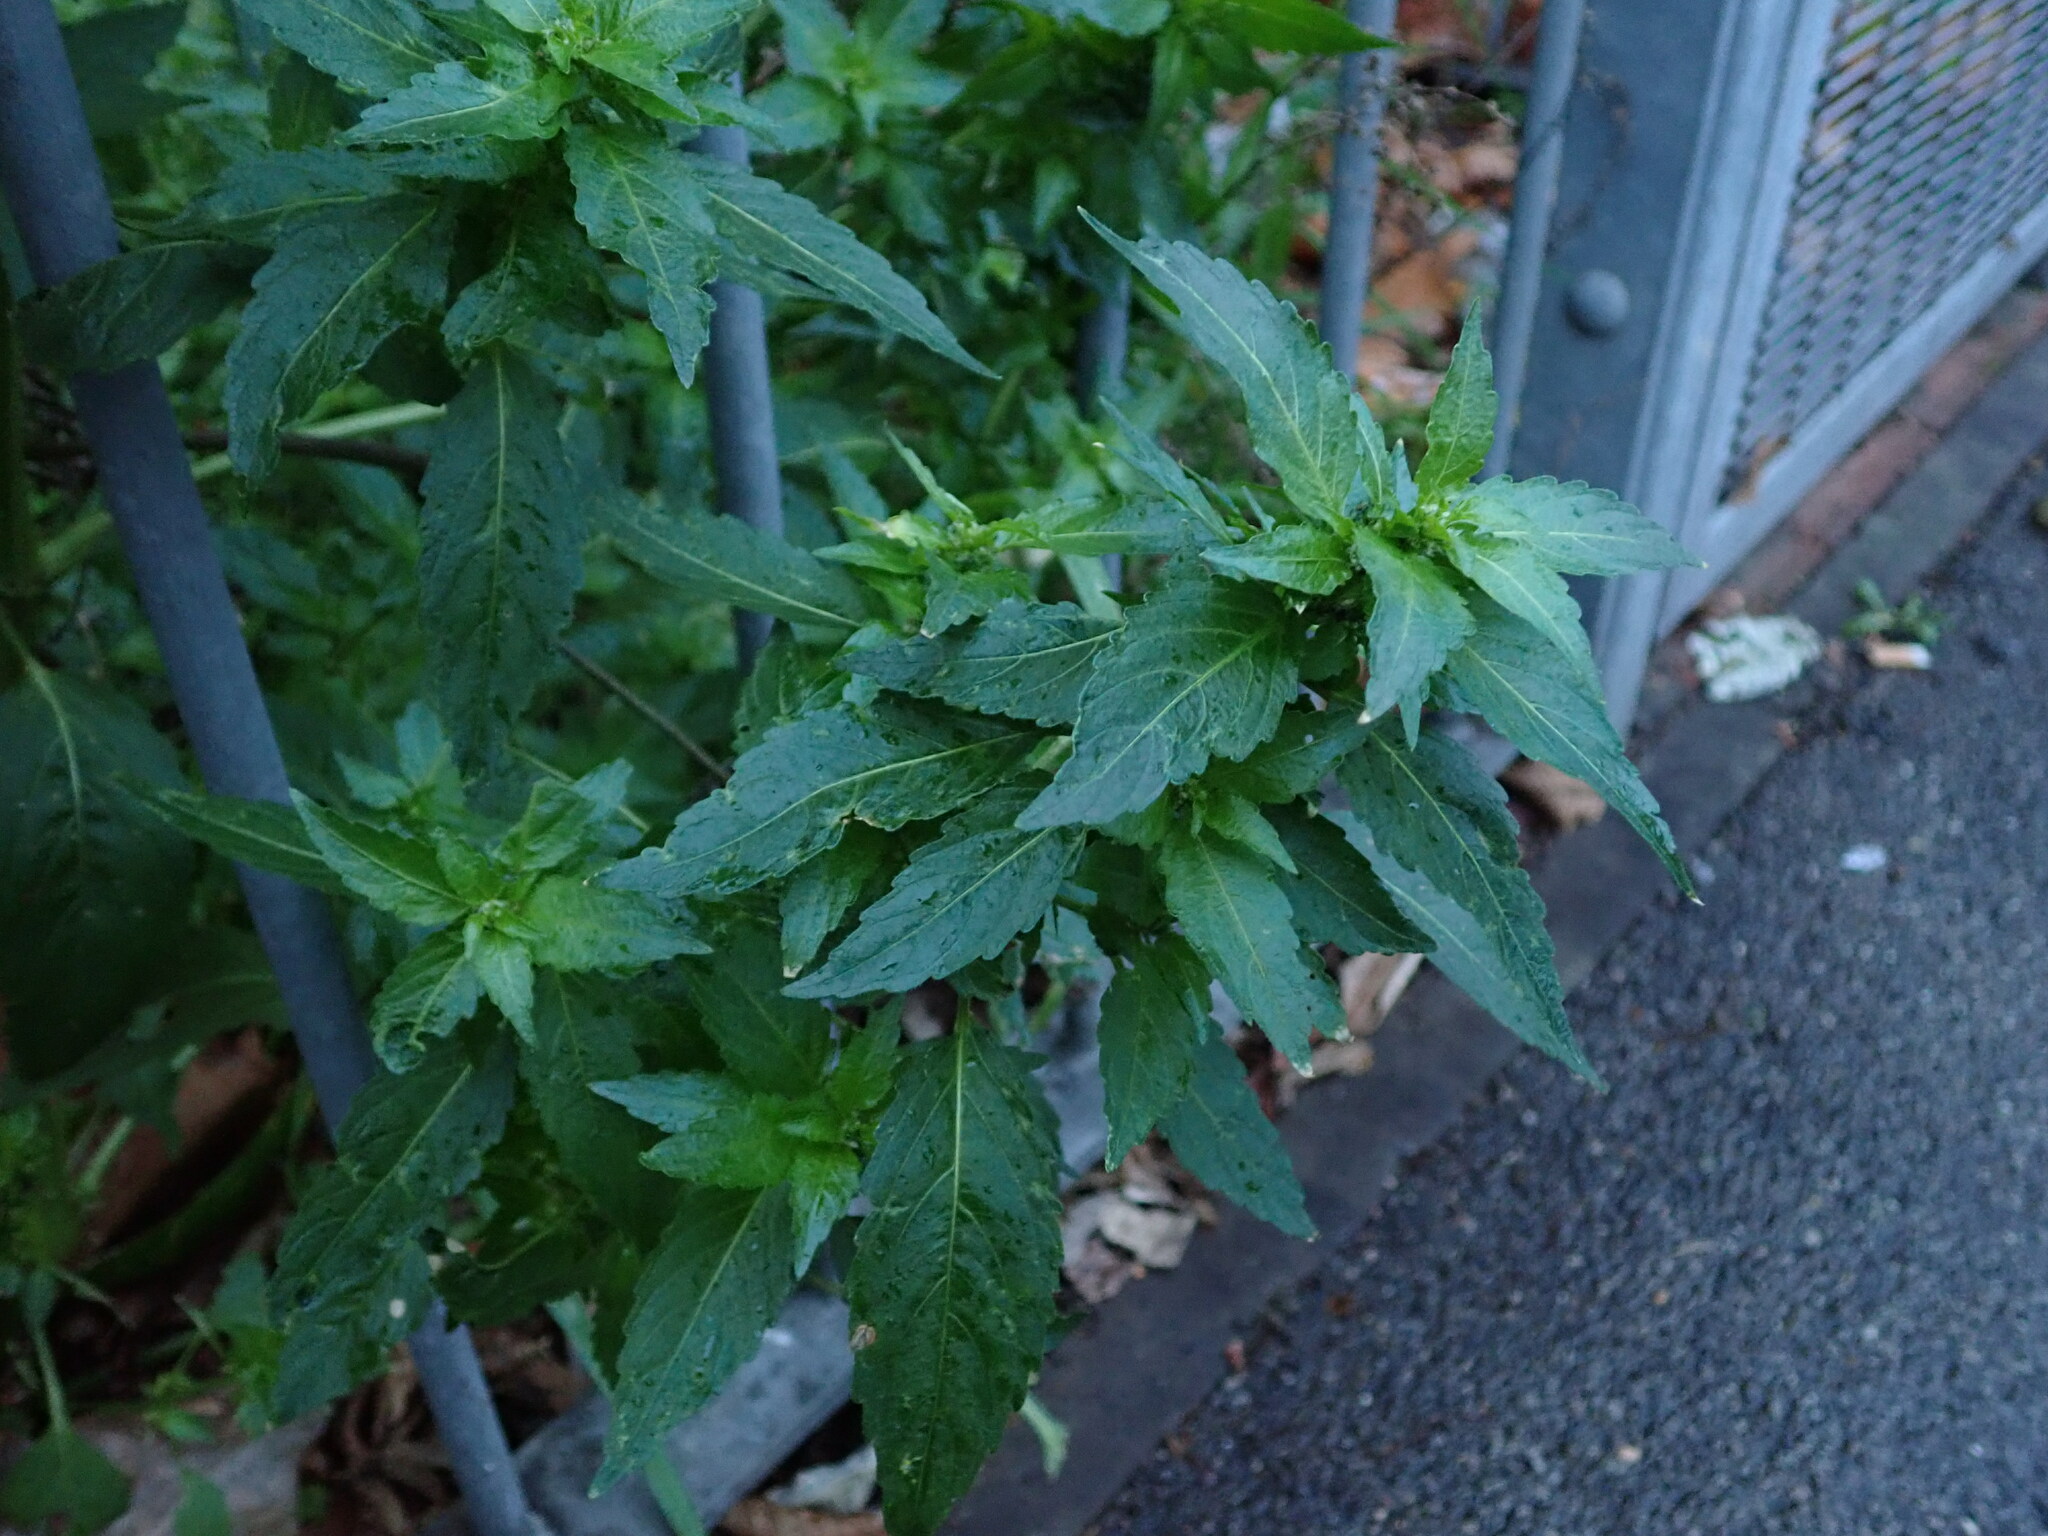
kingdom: Plantae
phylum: Tracheophyta
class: Magnoliopsida
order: Malpighiales
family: Euphorbiaceae
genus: Mercurialis
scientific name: Mercurialis annua
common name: Annual mercury
